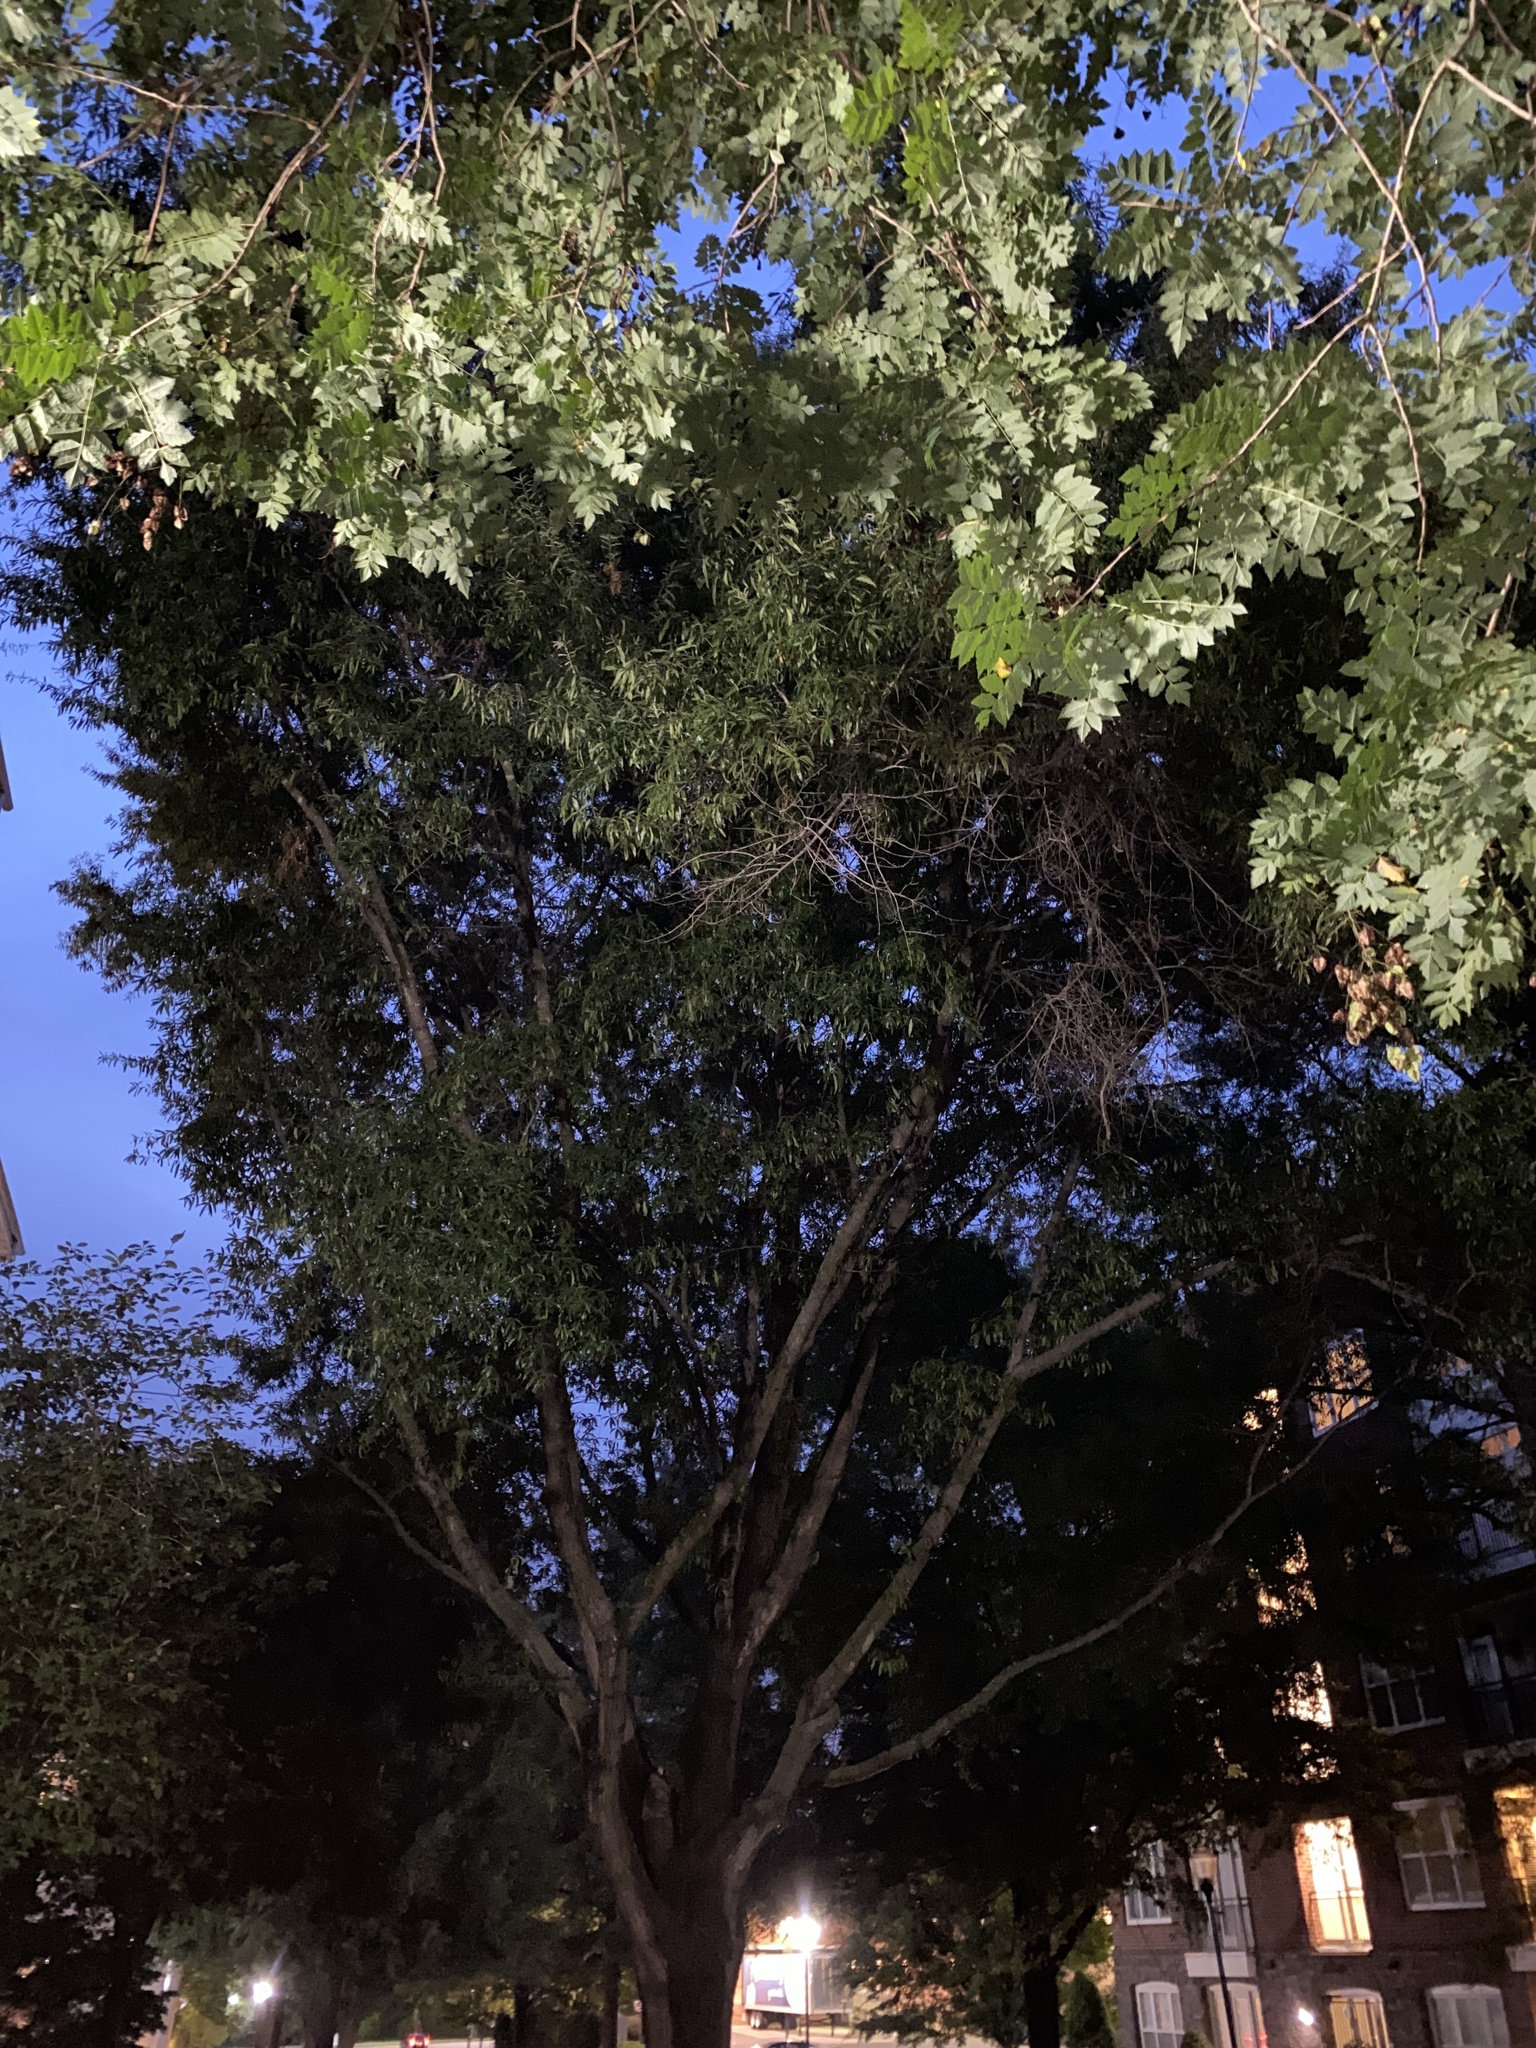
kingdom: Animalia
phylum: Arthropoda
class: Insecta
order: Orthoptera
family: Tettigoniidae
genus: Pterophylla
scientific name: Pterophylla camellifolia
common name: Common true katydid
